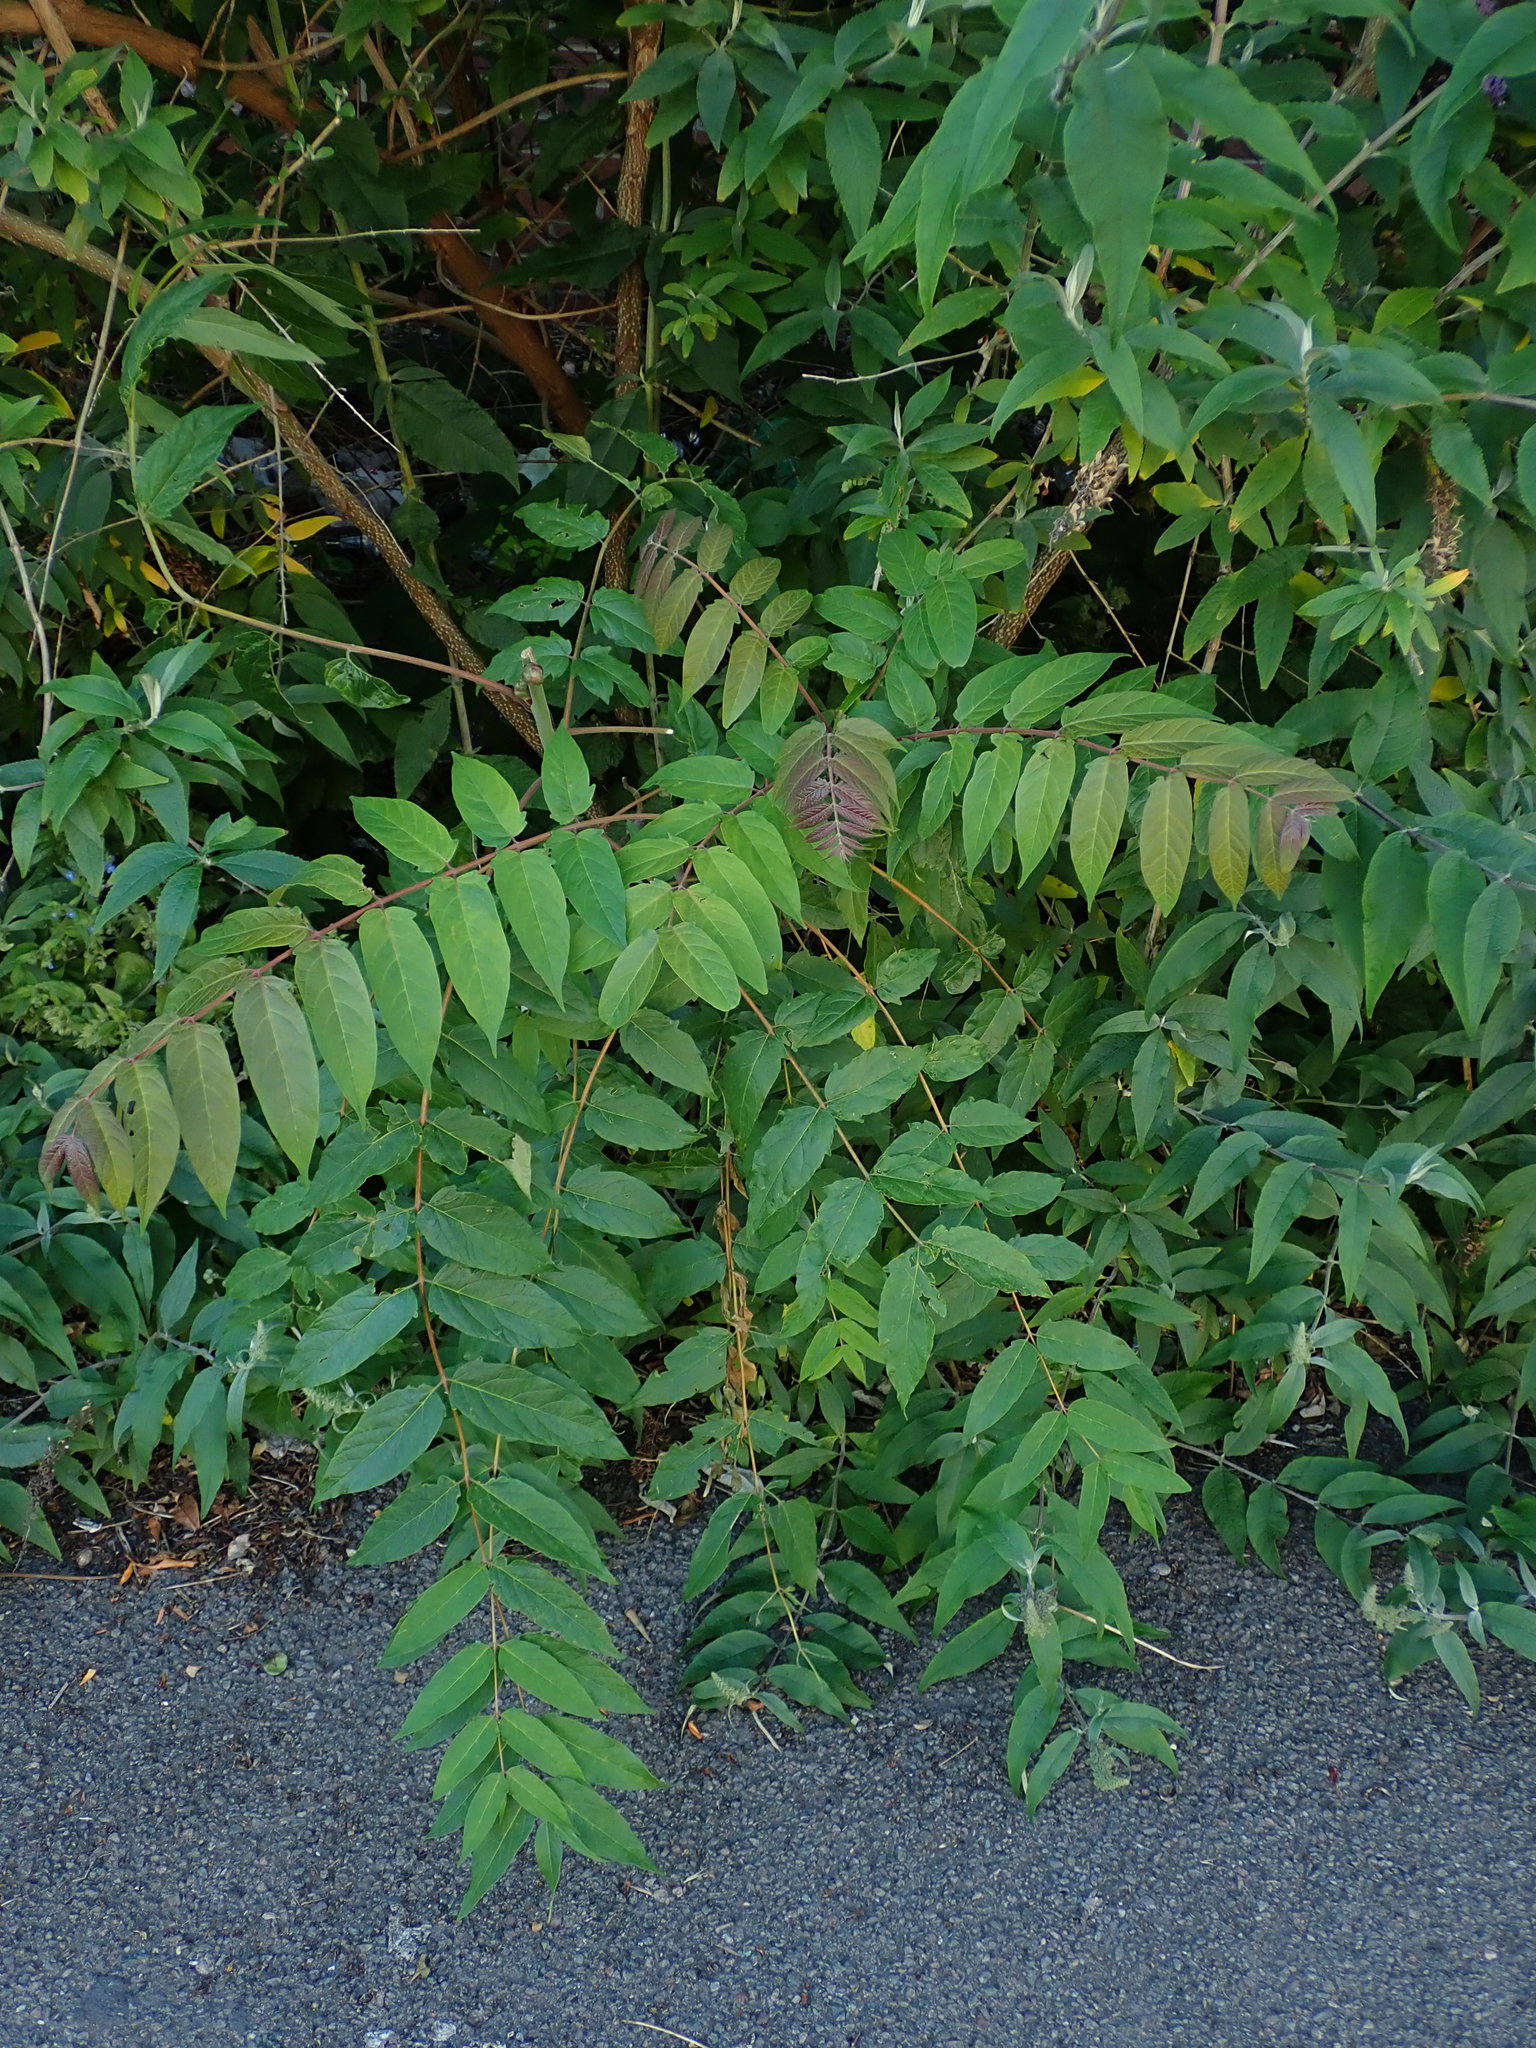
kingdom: Plantae
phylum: Tracheophyta
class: Magnoliopsida
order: Sapindales
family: Simaroubaceae
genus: Ailanthus
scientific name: Ailanthus altissima
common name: Tree-of-heaven
